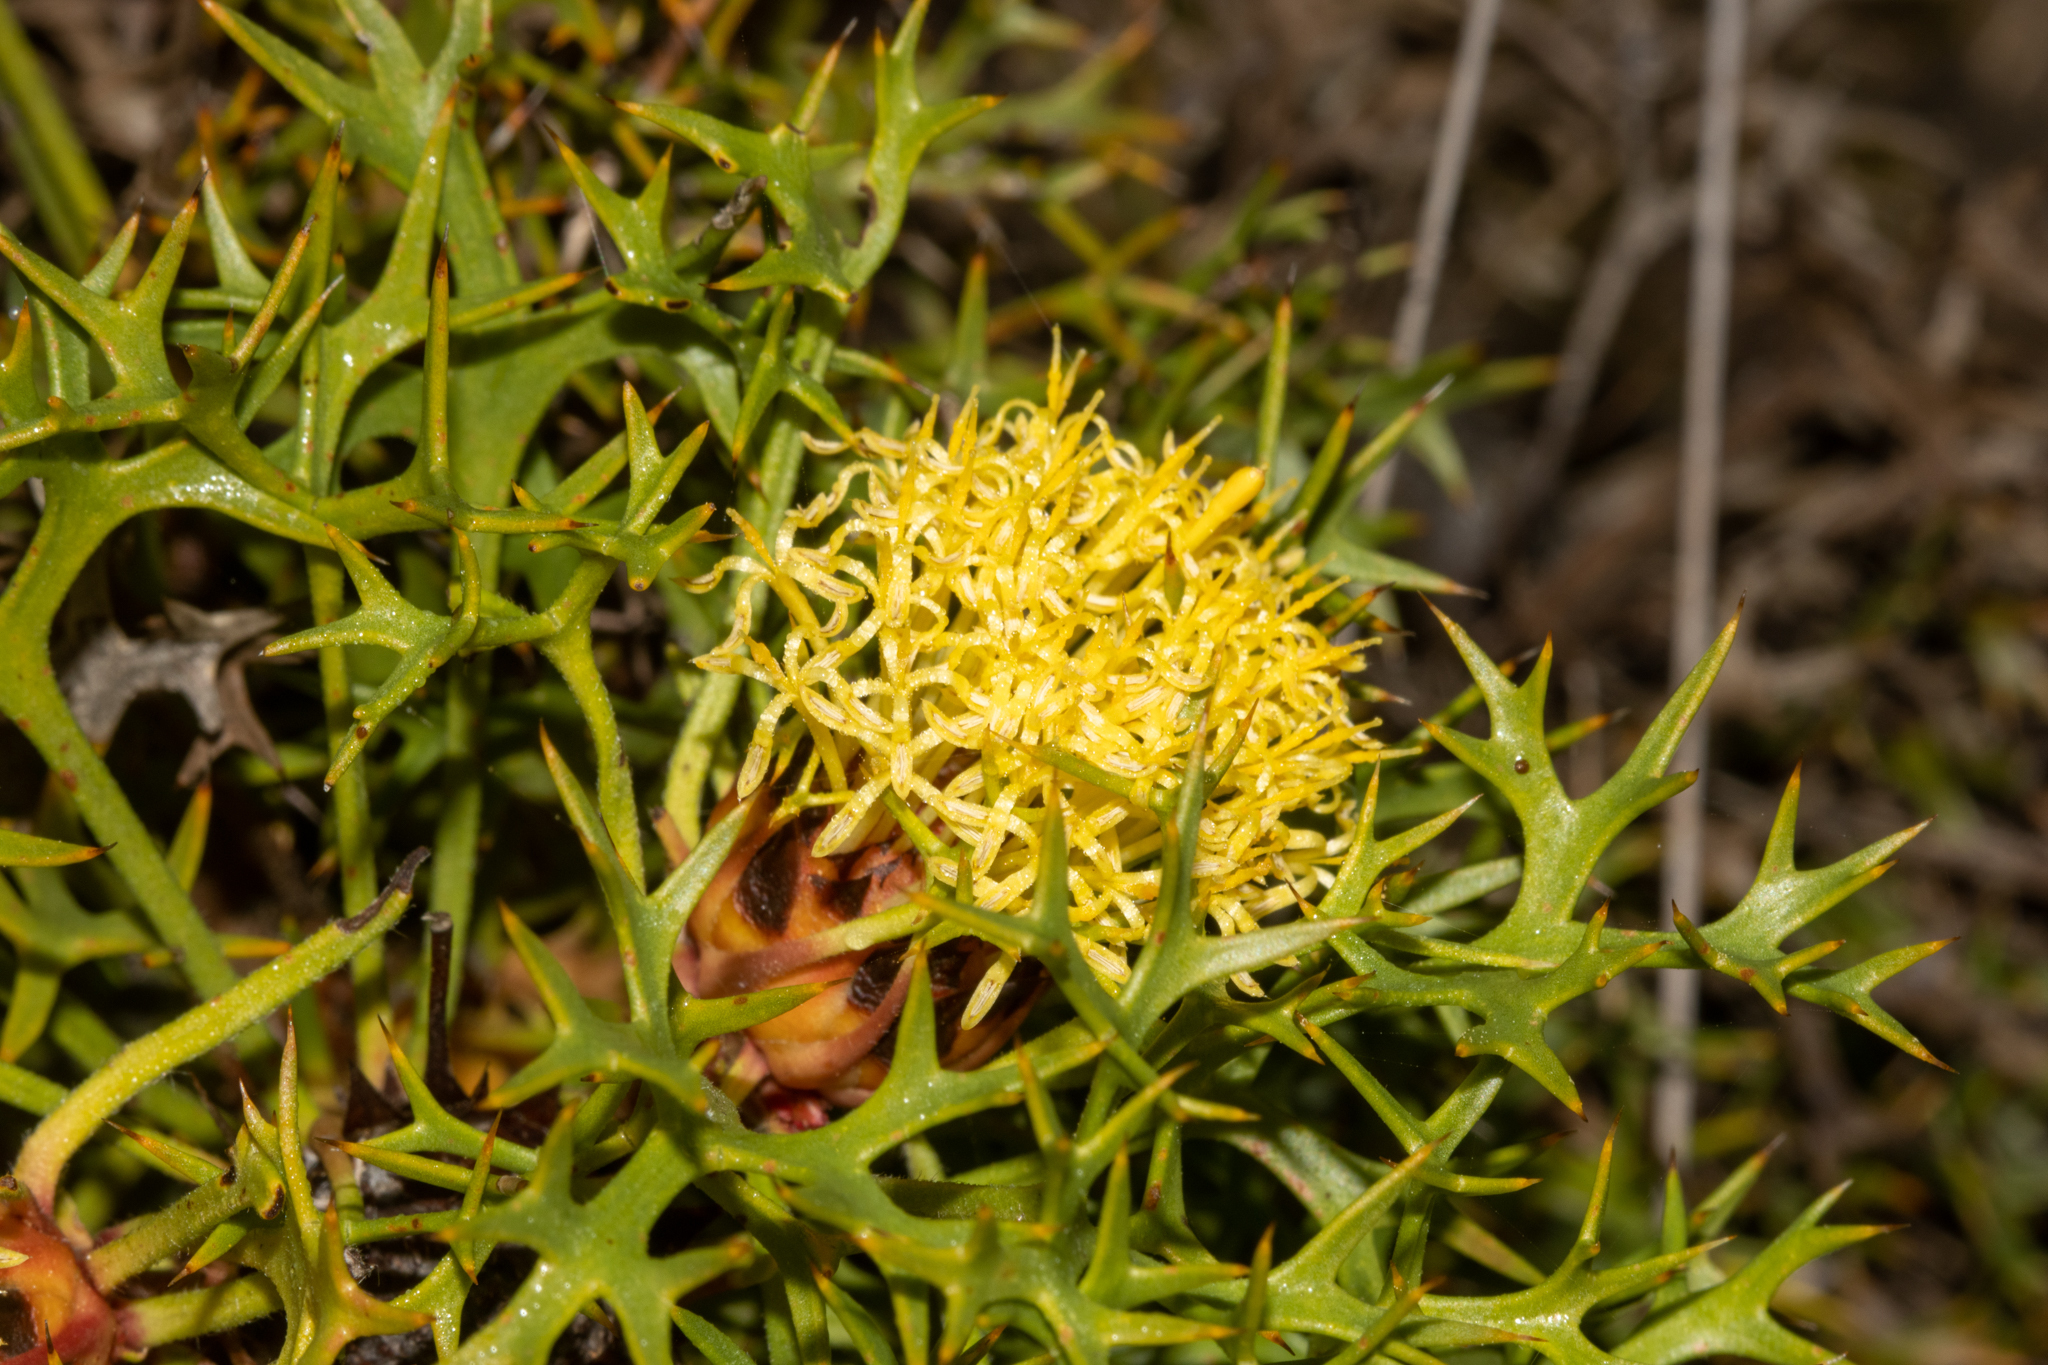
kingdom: Plantae
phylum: Tracheophyta
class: Magnoliopsida
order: Proteales
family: Proteaceae
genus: Isopogon
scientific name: Isopogon ceratophyllus
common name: Horny cone-bush
